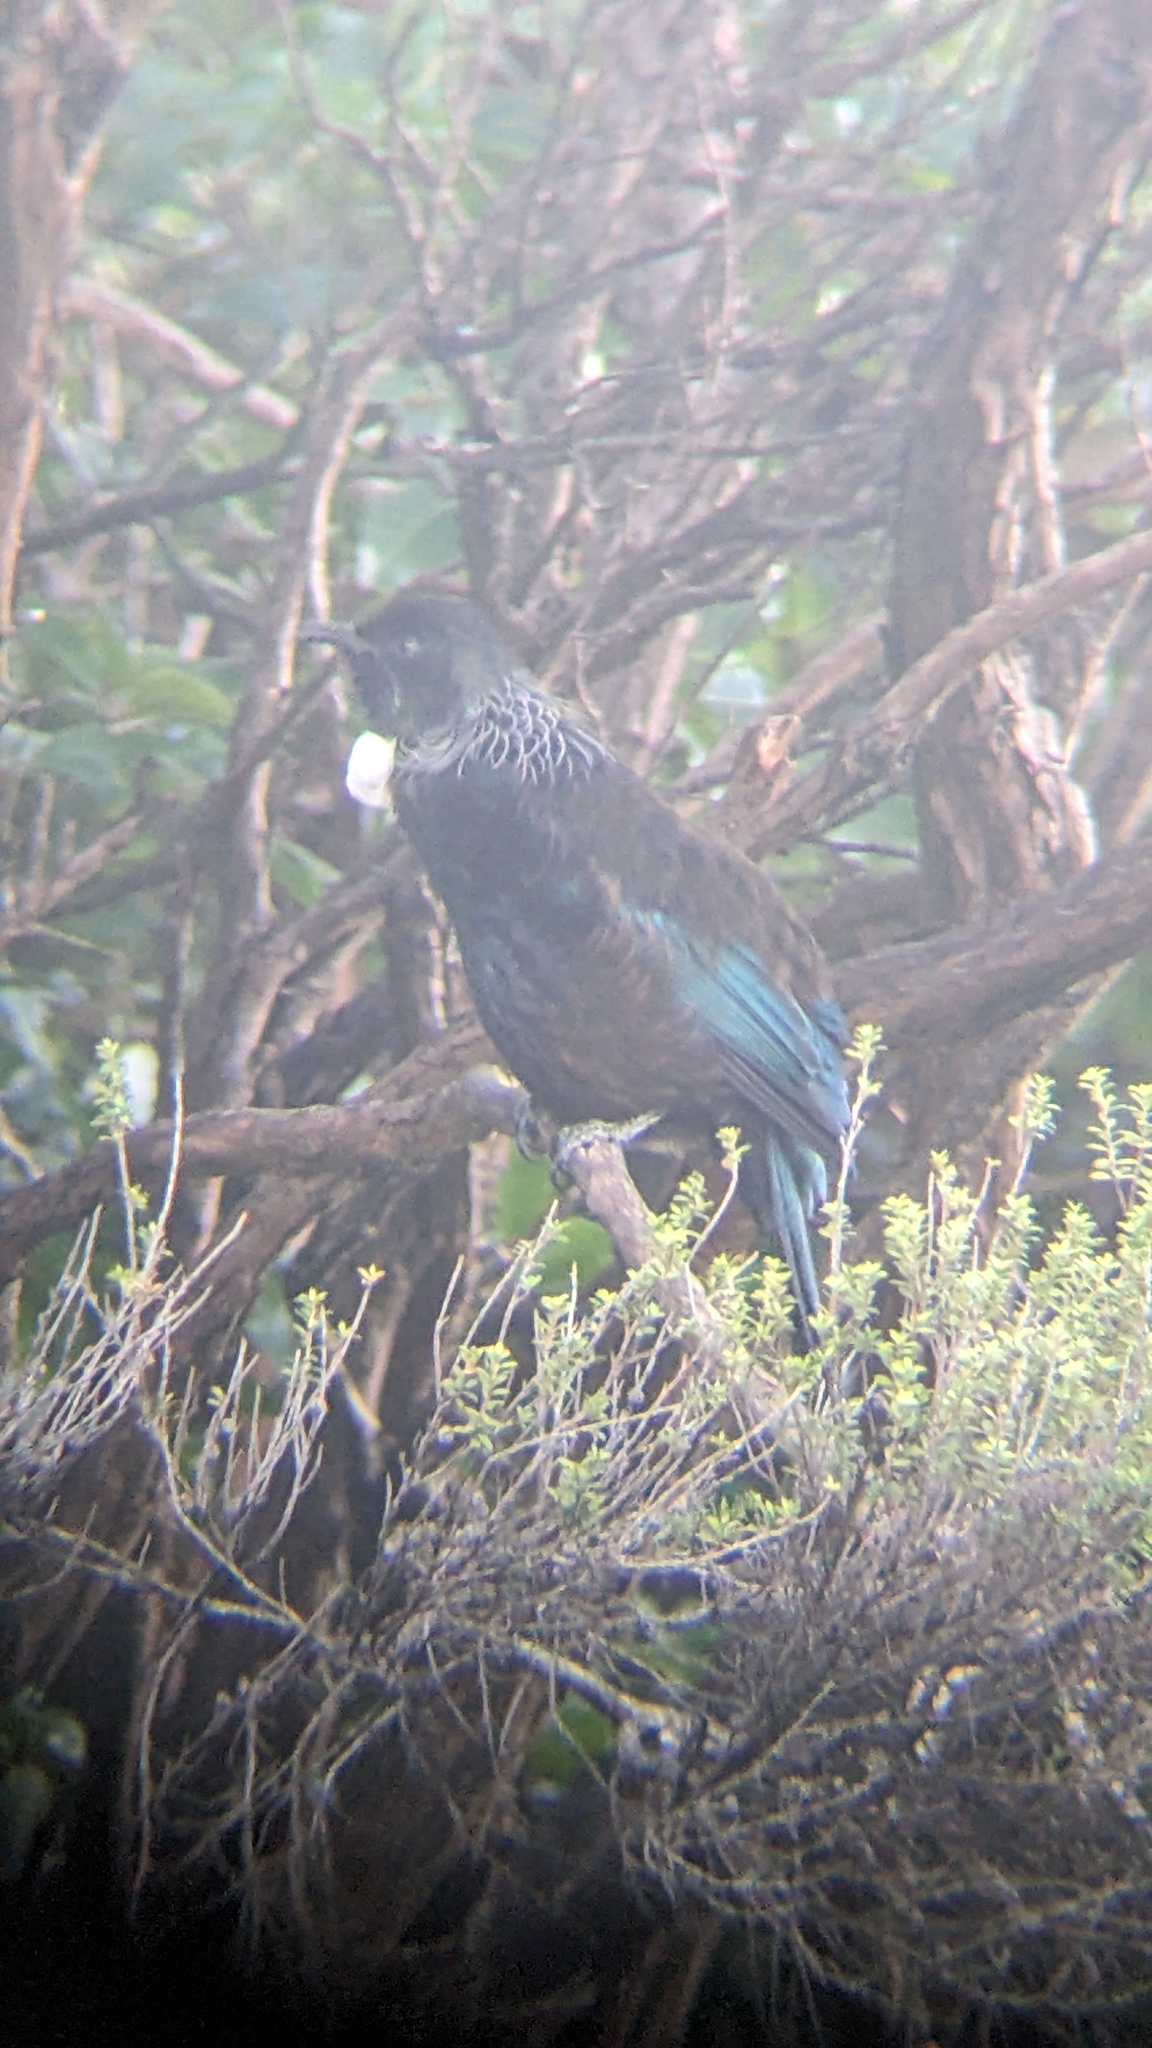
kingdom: Animalia
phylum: Chordata
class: Aves
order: Passeriformes
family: Meliphagidae
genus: Prosthemadera
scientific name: Prosthemadera novaeseelandiae
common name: Tui
